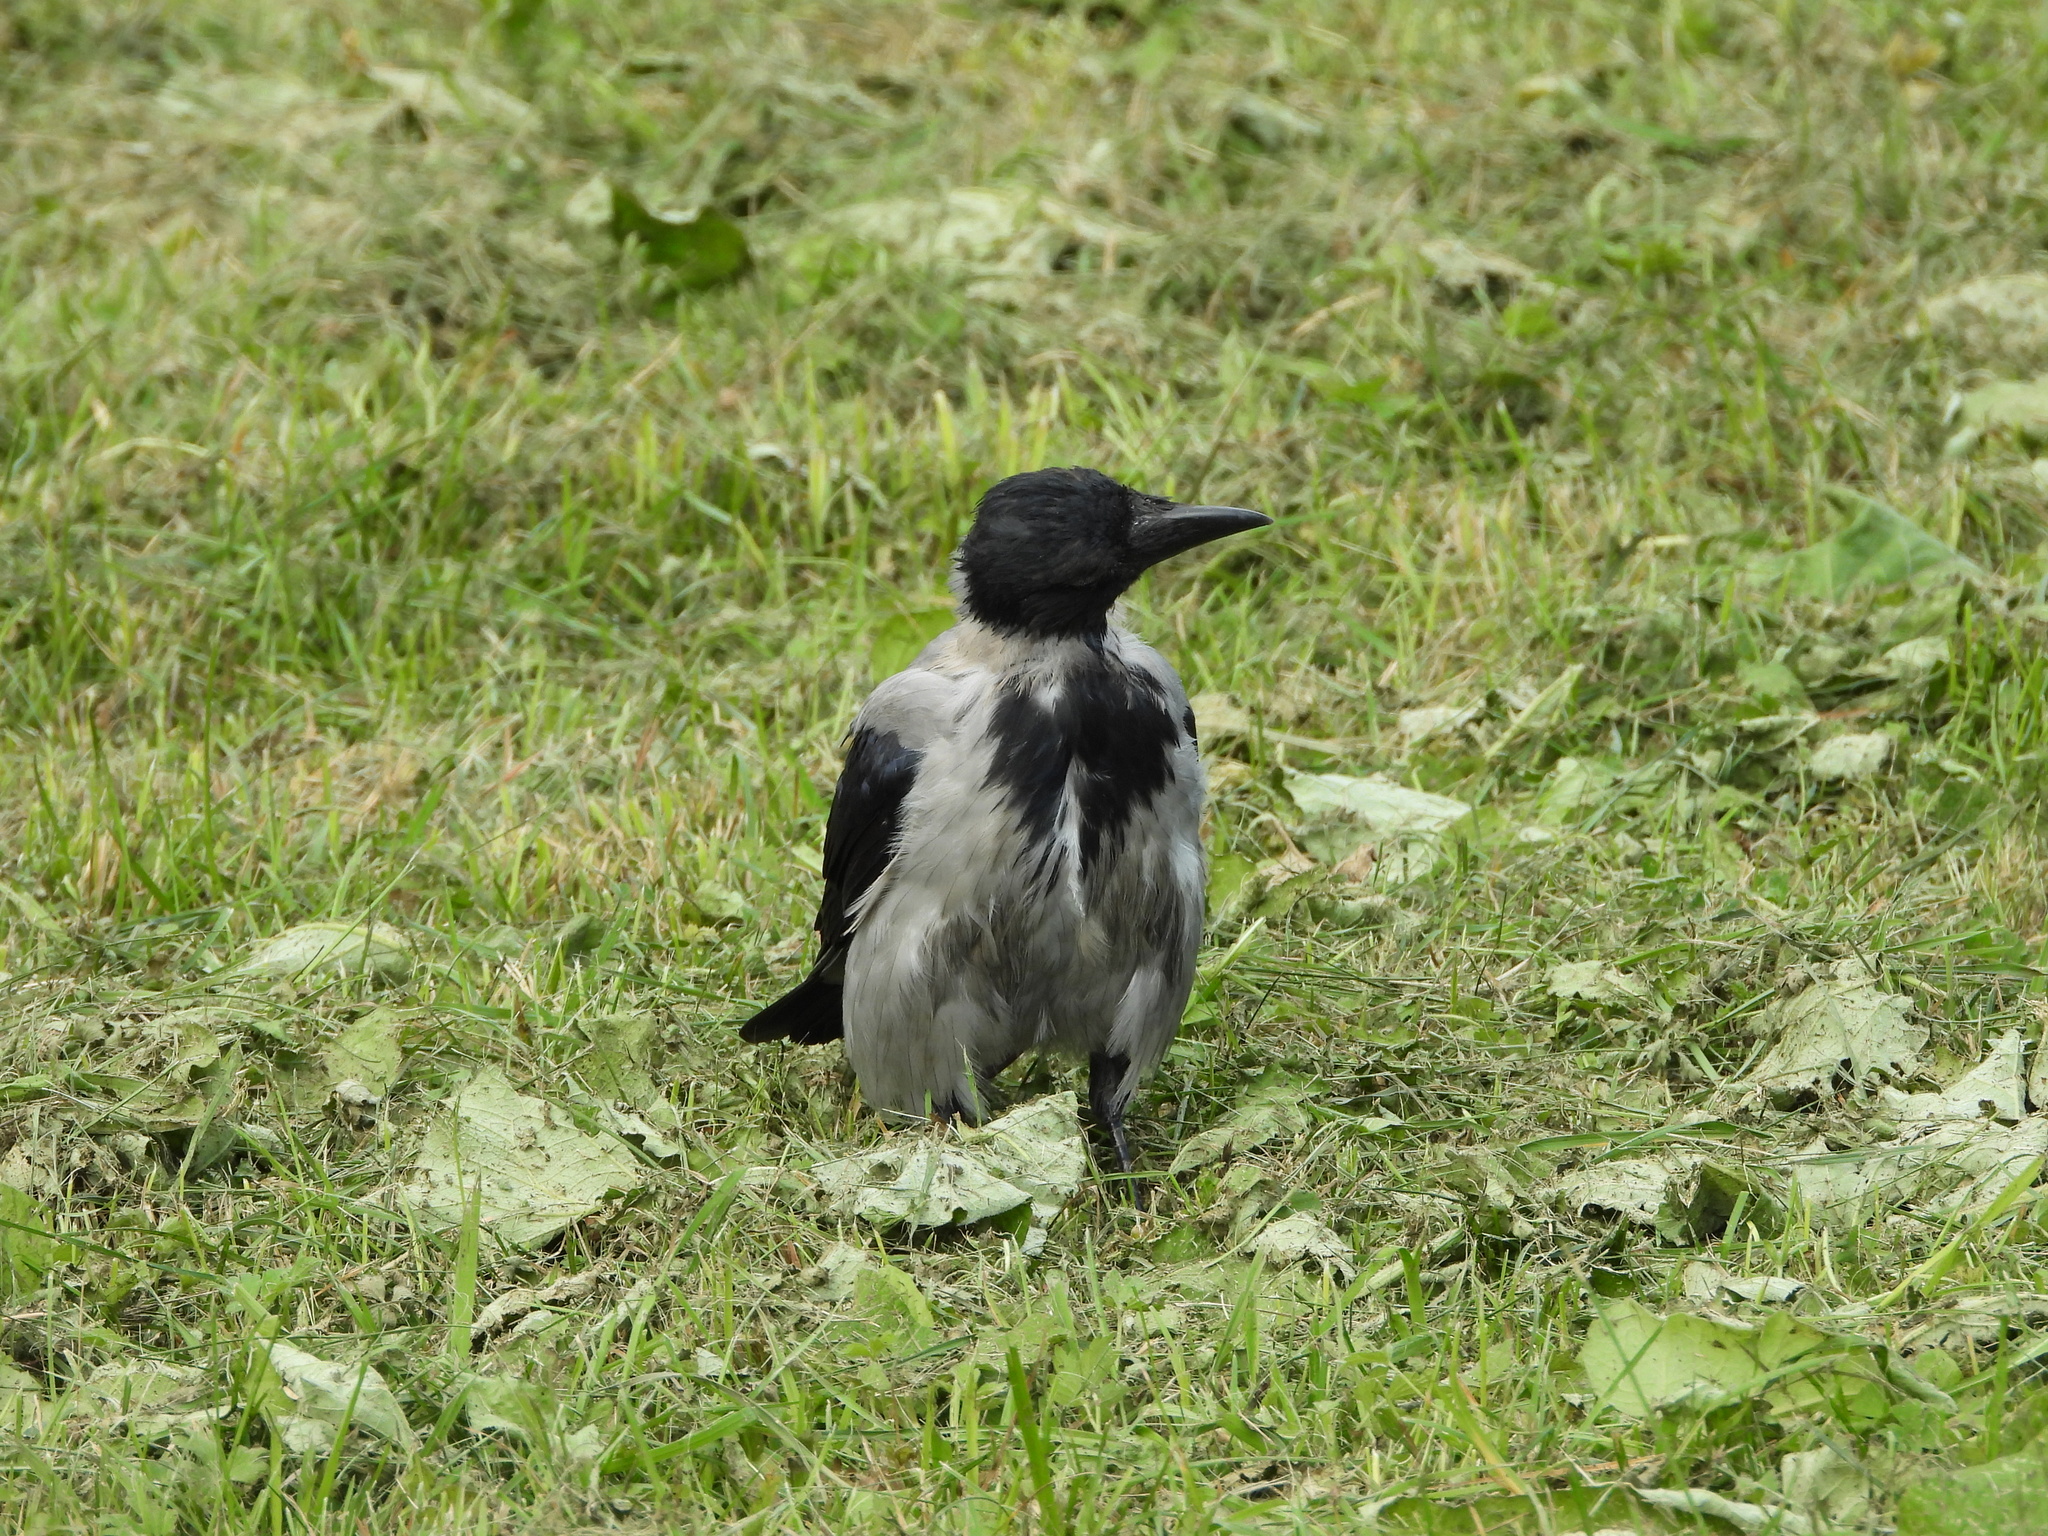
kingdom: Animalia
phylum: Chordata
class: Aves
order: Passeriformes
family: Corvidae
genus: Corvus
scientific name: Corvus cornix
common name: Hooded crow
